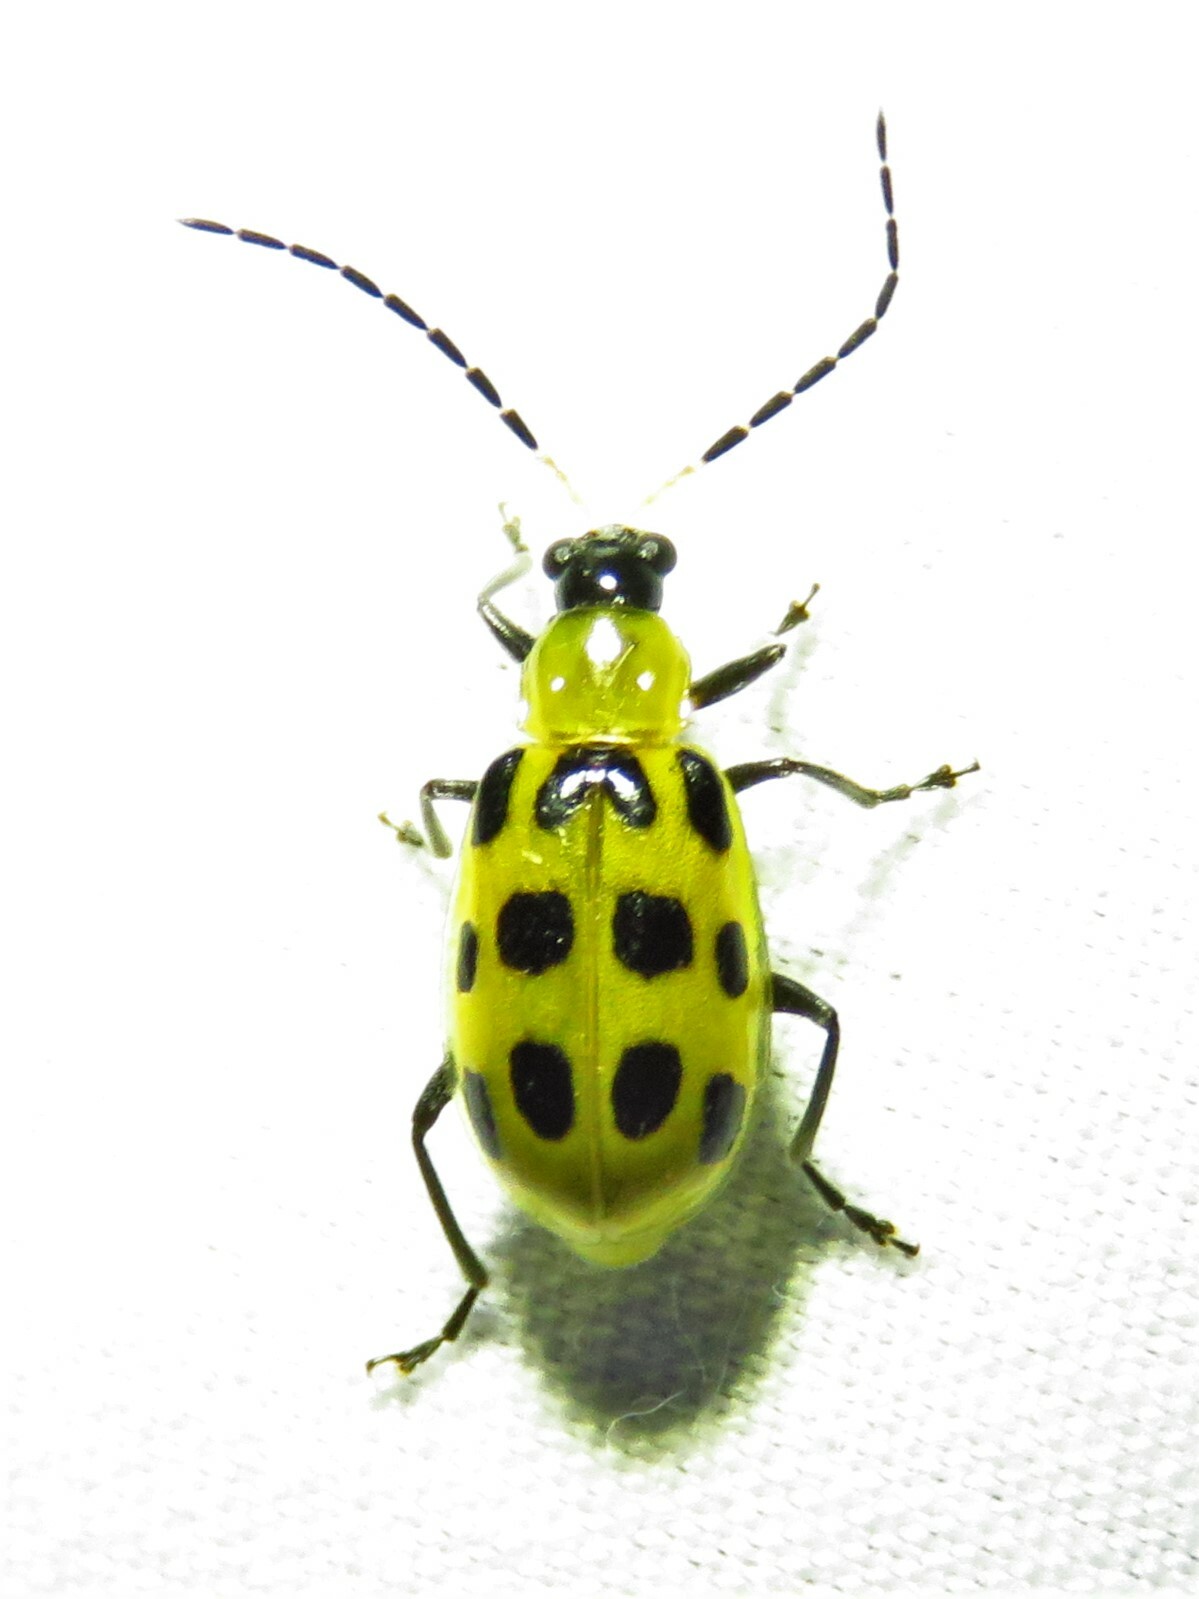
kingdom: Animalia
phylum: Arthropoda
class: Insecta
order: Coleoptera
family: Chrysomelidae
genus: Diabrotica
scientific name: Diabrotica undecimpunctata
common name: Spotted cucumber beetle
